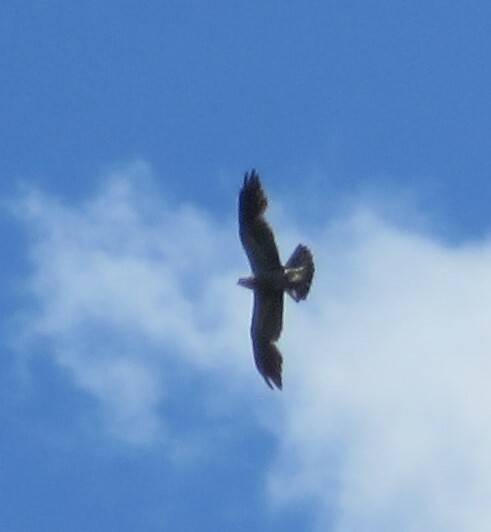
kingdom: Animalia
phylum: Chordata
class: Aves
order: Accipitriformes
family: Accipitridae
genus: Ictinia
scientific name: Ictinia mississippiensis
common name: Mississippi kite
